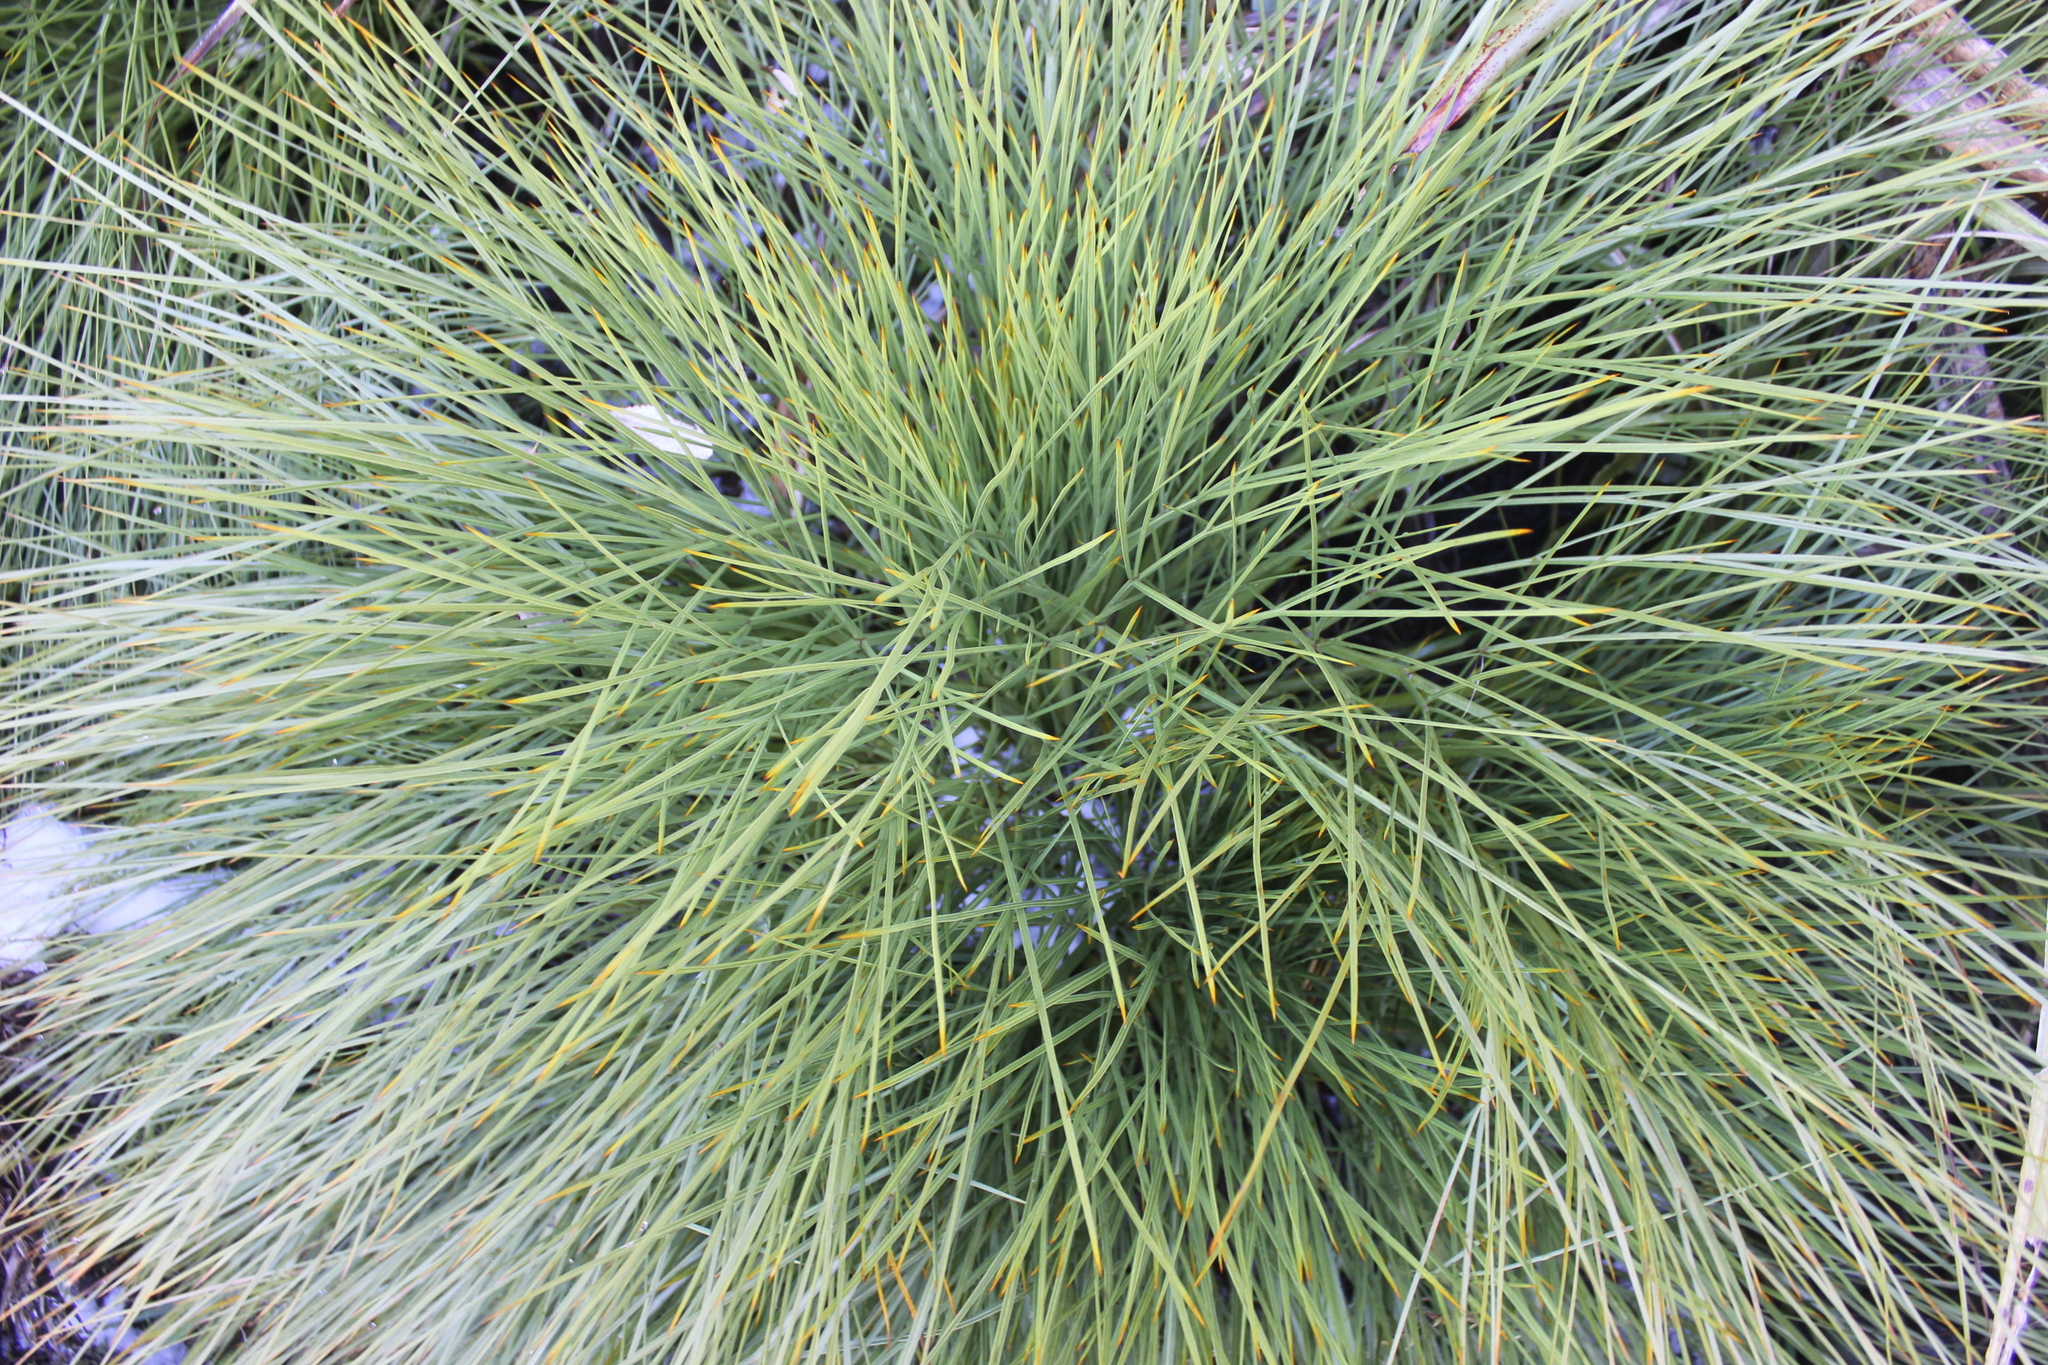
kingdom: Plantae
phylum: Tracheophyta
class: Magnoliopsida
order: Apiales
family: Apiaceae
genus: Aciphylla
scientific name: Aciphylla squarrosa
